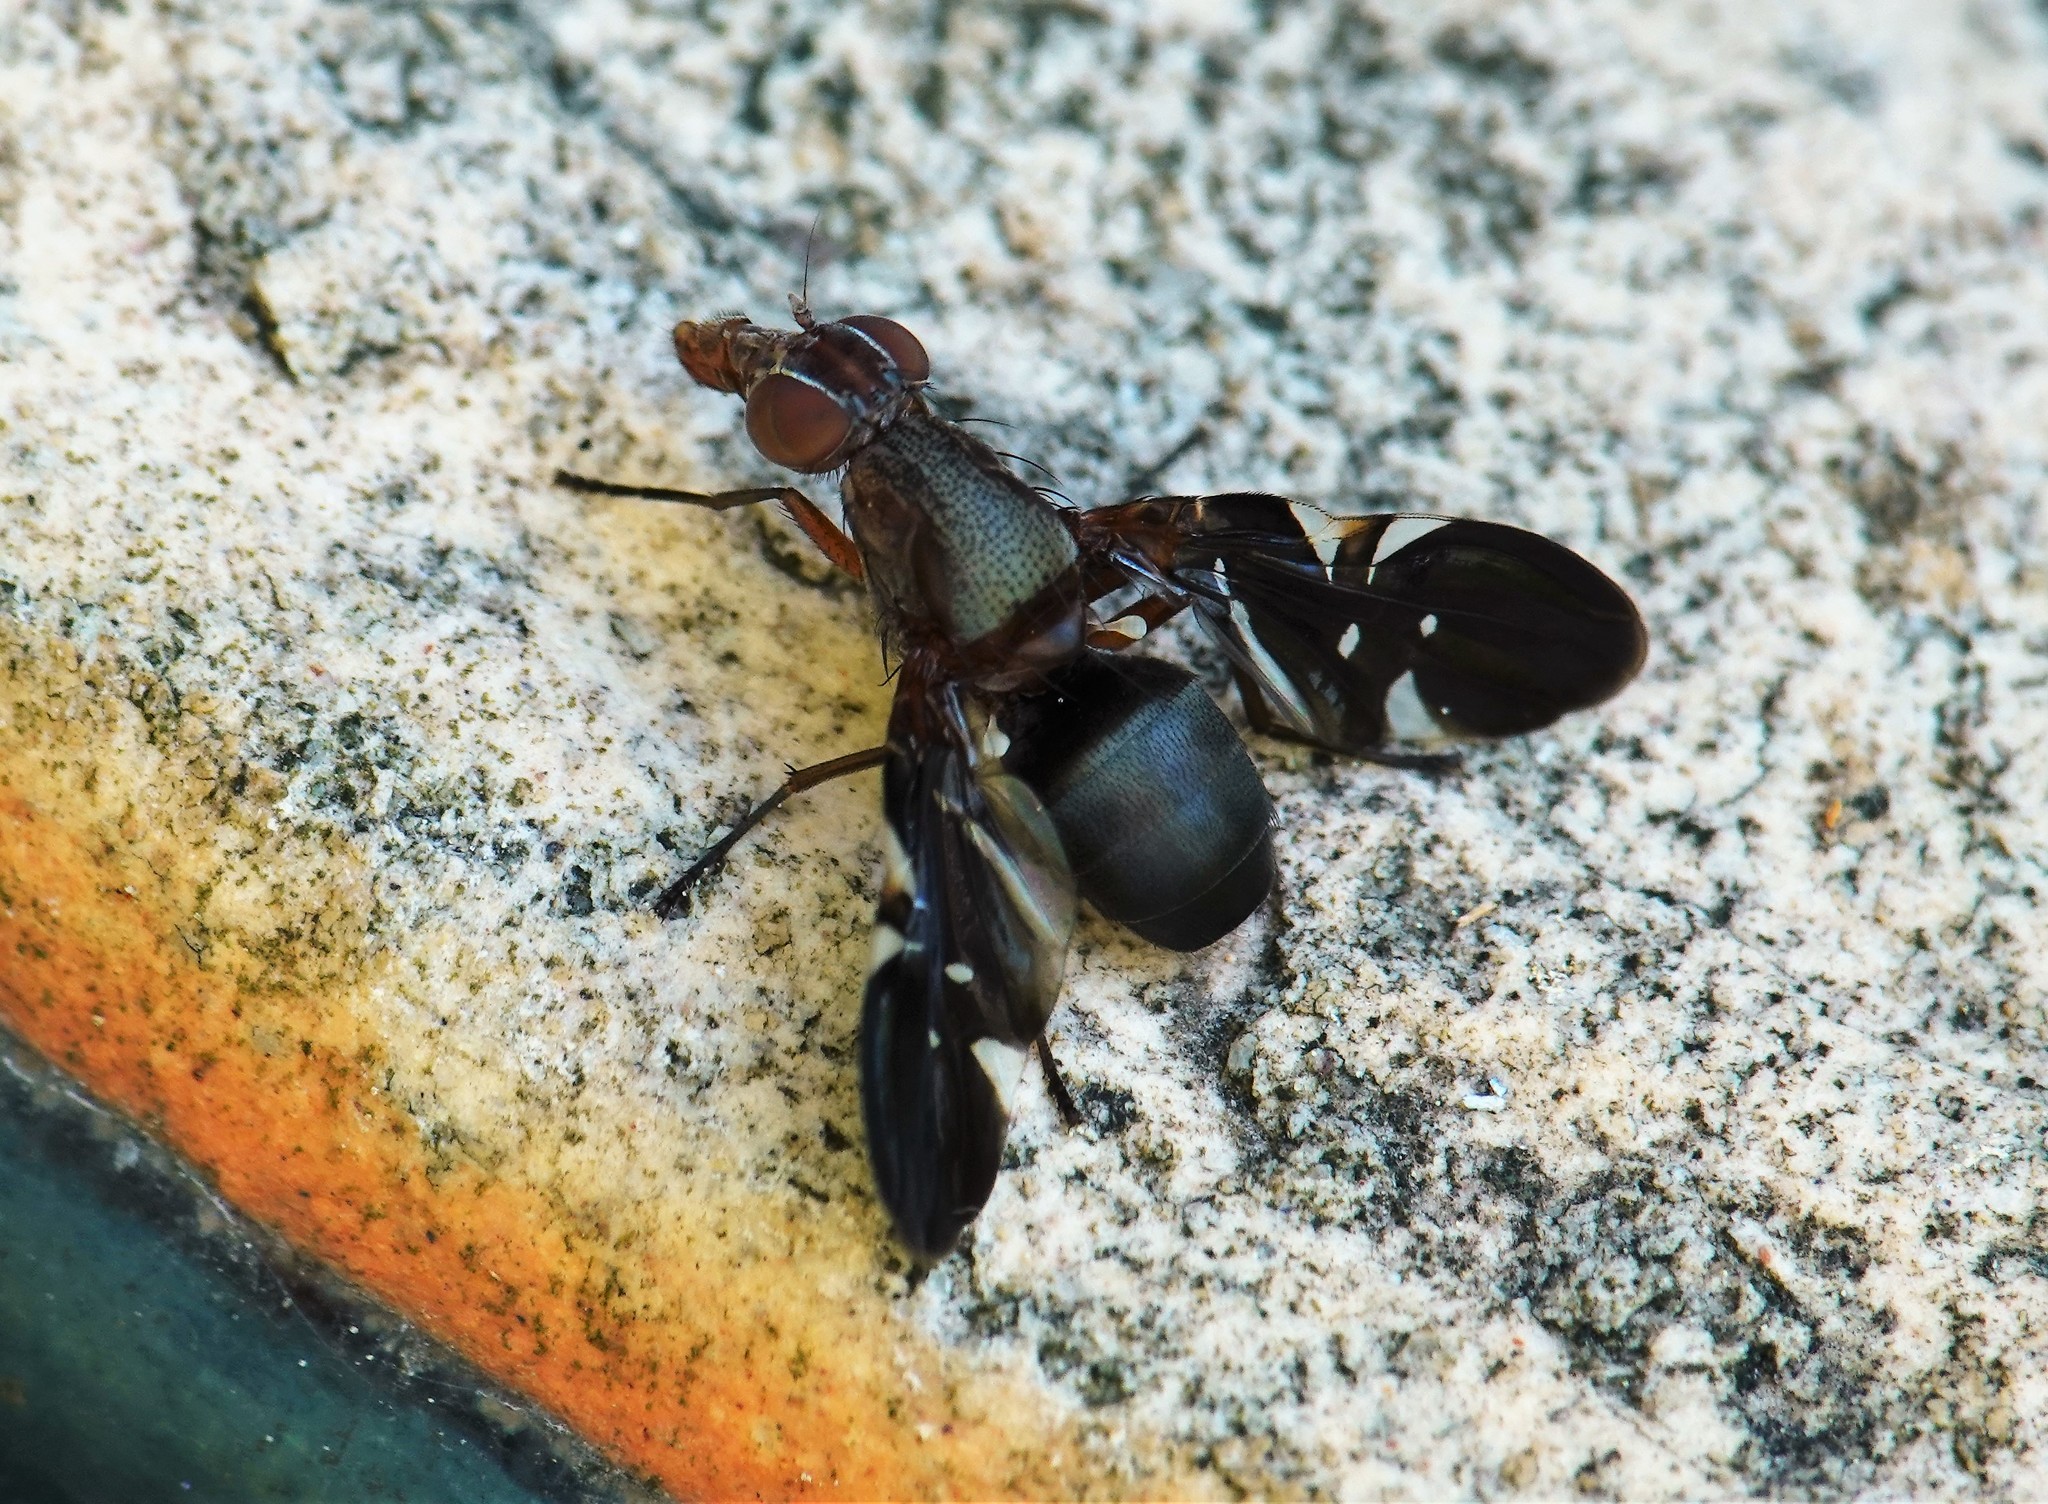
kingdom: Animalia
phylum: Arthropoda
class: Insecta
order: Diptera
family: Ulidiidae
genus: Delphinia
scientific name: Delphinia picta
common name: Common picture-winged fly
